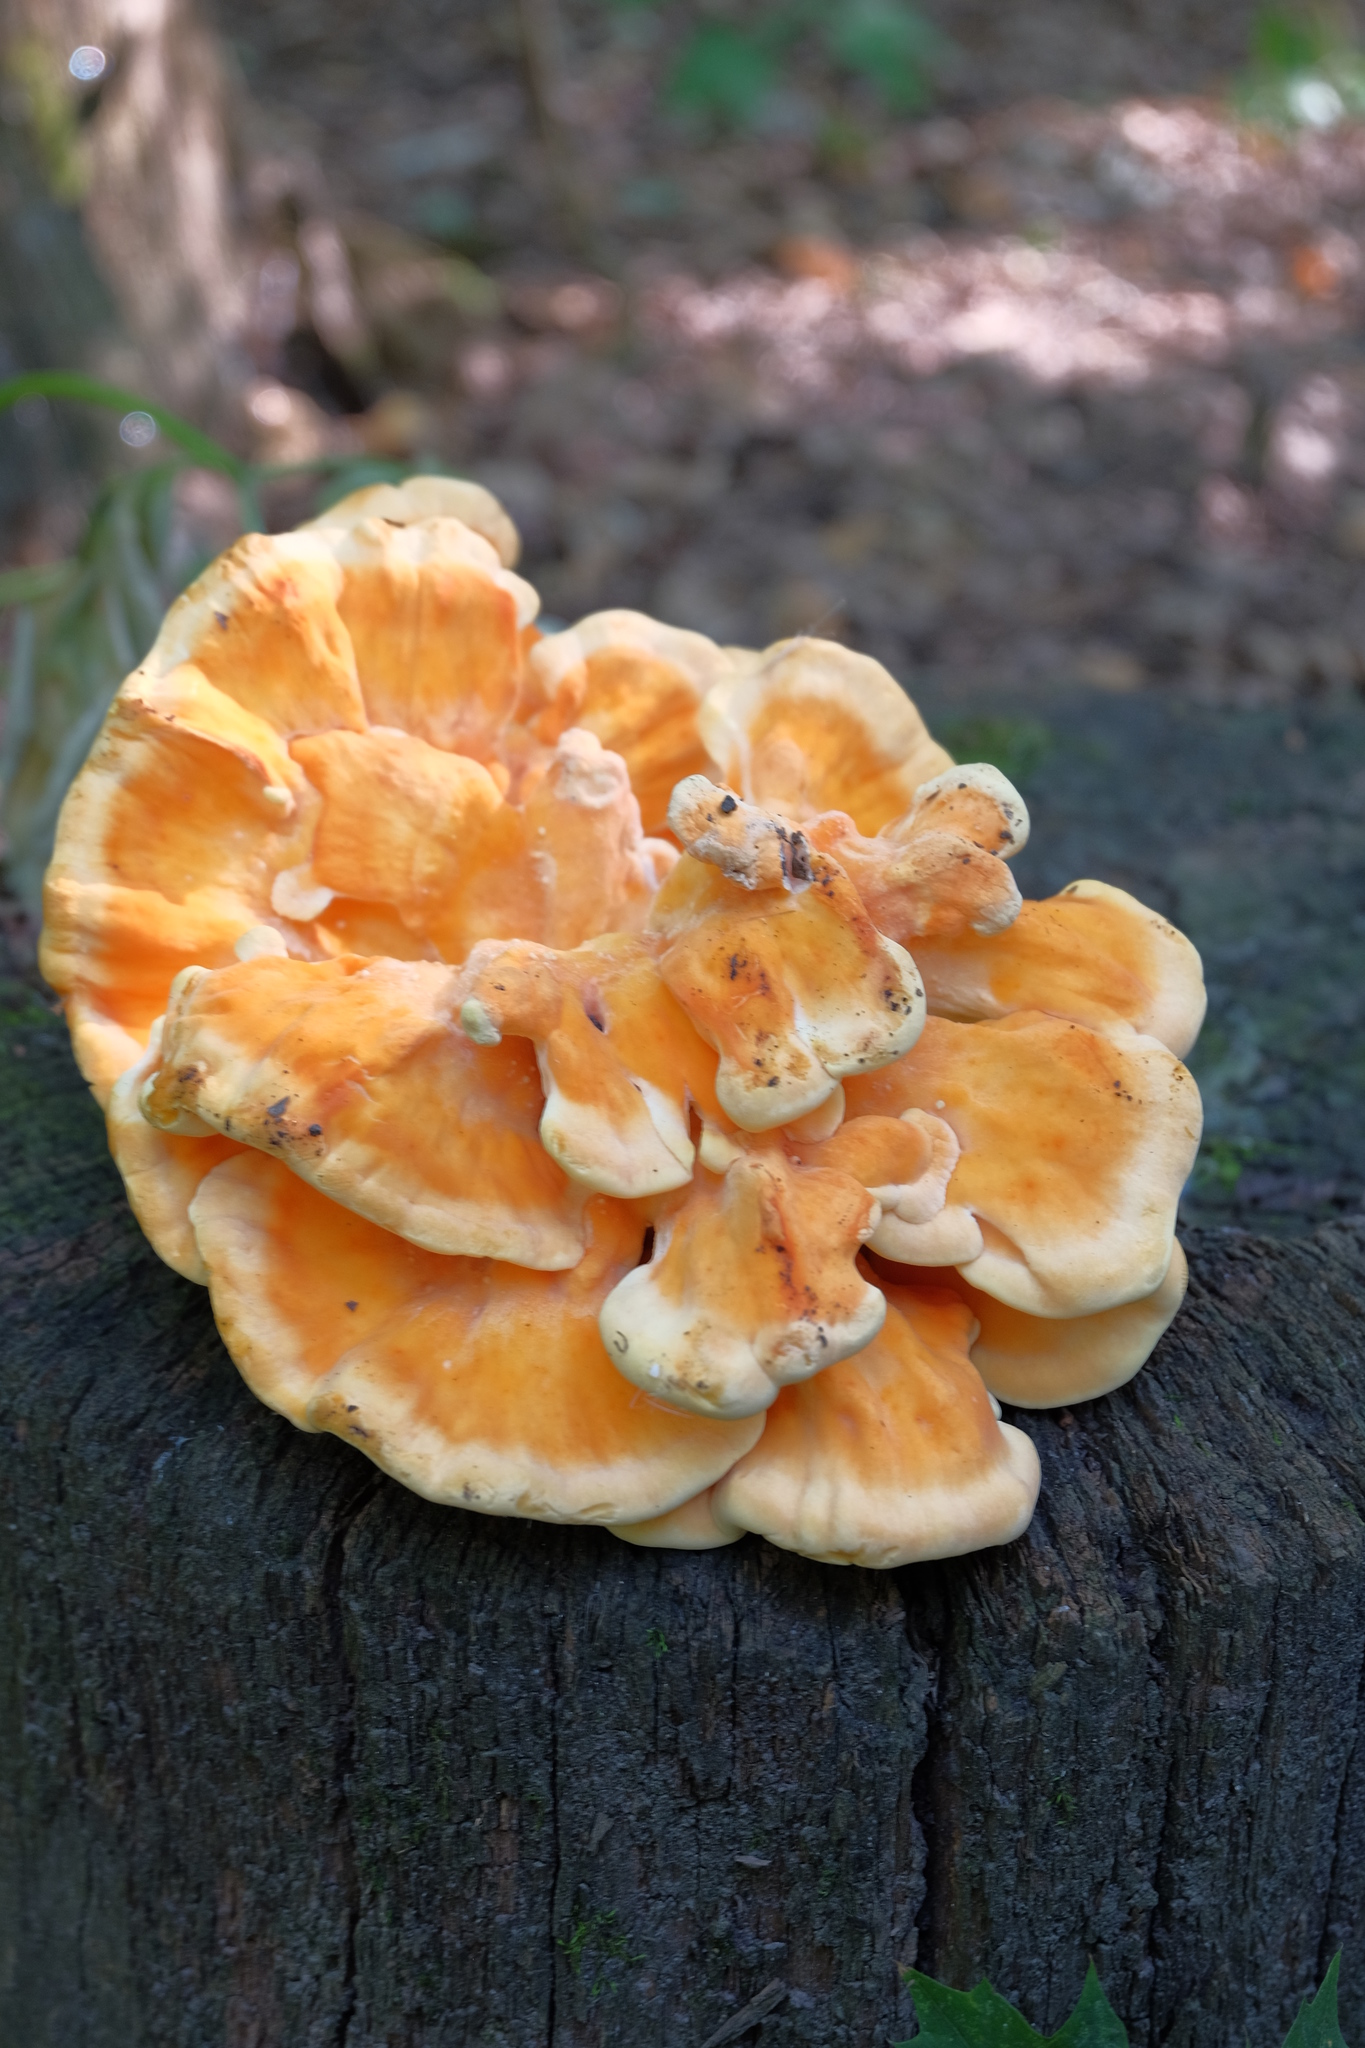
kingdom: Fungi
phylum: Basidiomycota
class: Agaricomycetes
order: Polyporales
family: Laetiporaceae
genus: Laetiporus
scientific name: Laetiporus sulphureus
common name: Chicken of the woods
